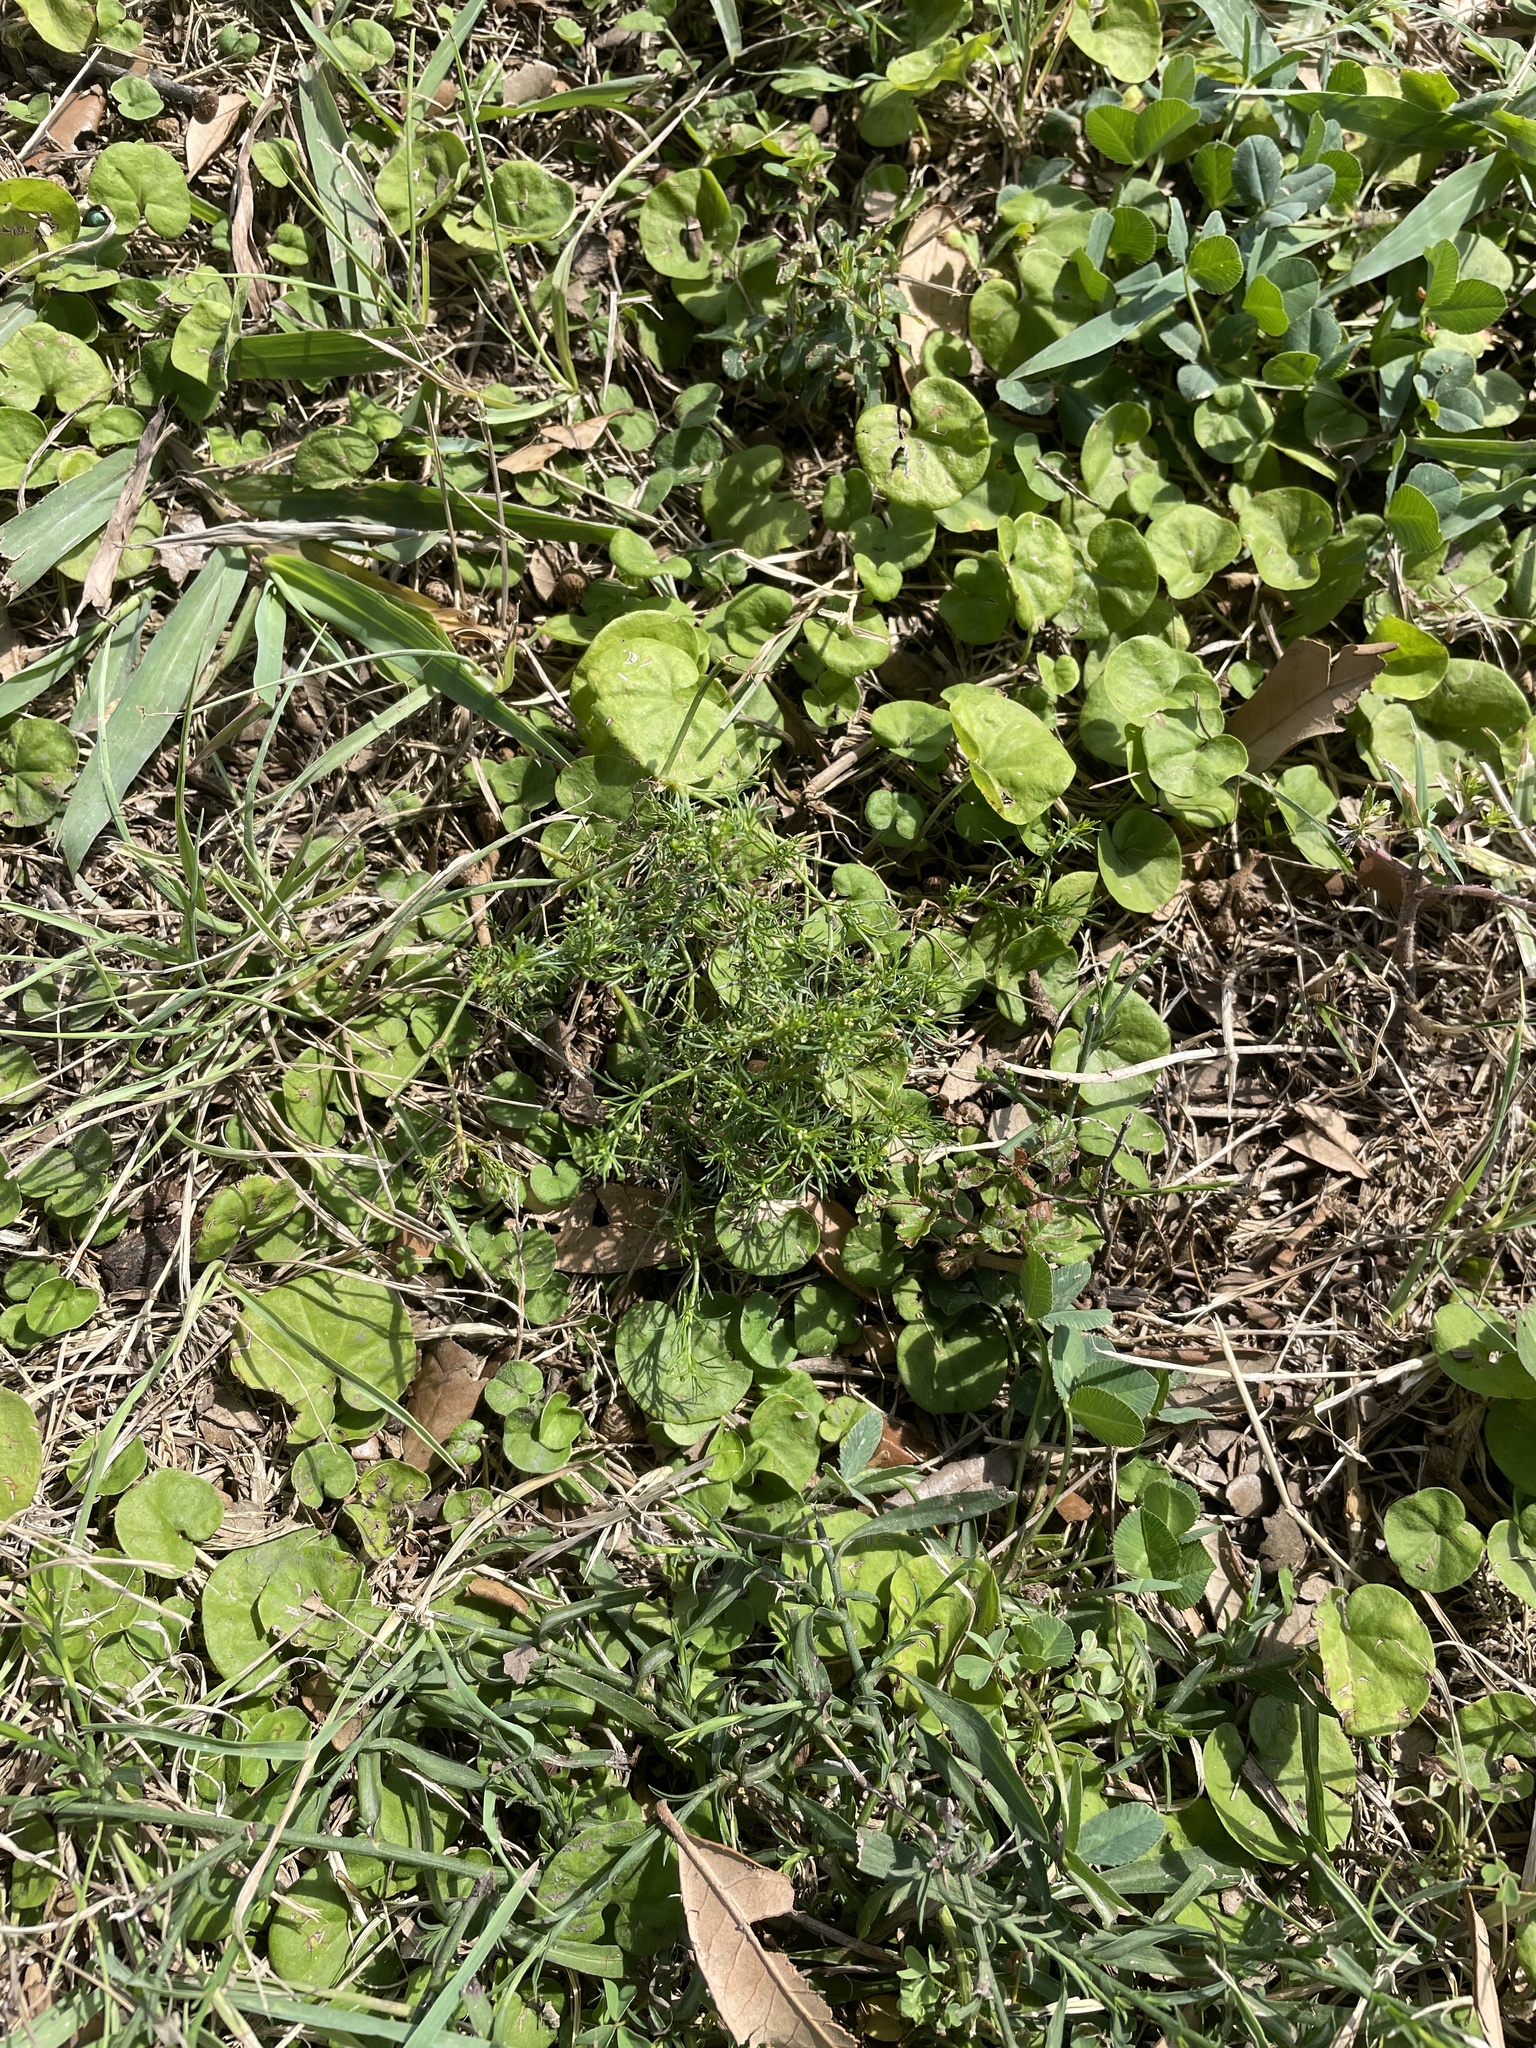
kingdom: Plantae
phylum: Tracheophyta
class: Magnoliopsida
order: Apiales
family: Apiaceae
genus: Cyclospermum
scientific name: Cyclospermum leptophyllum
